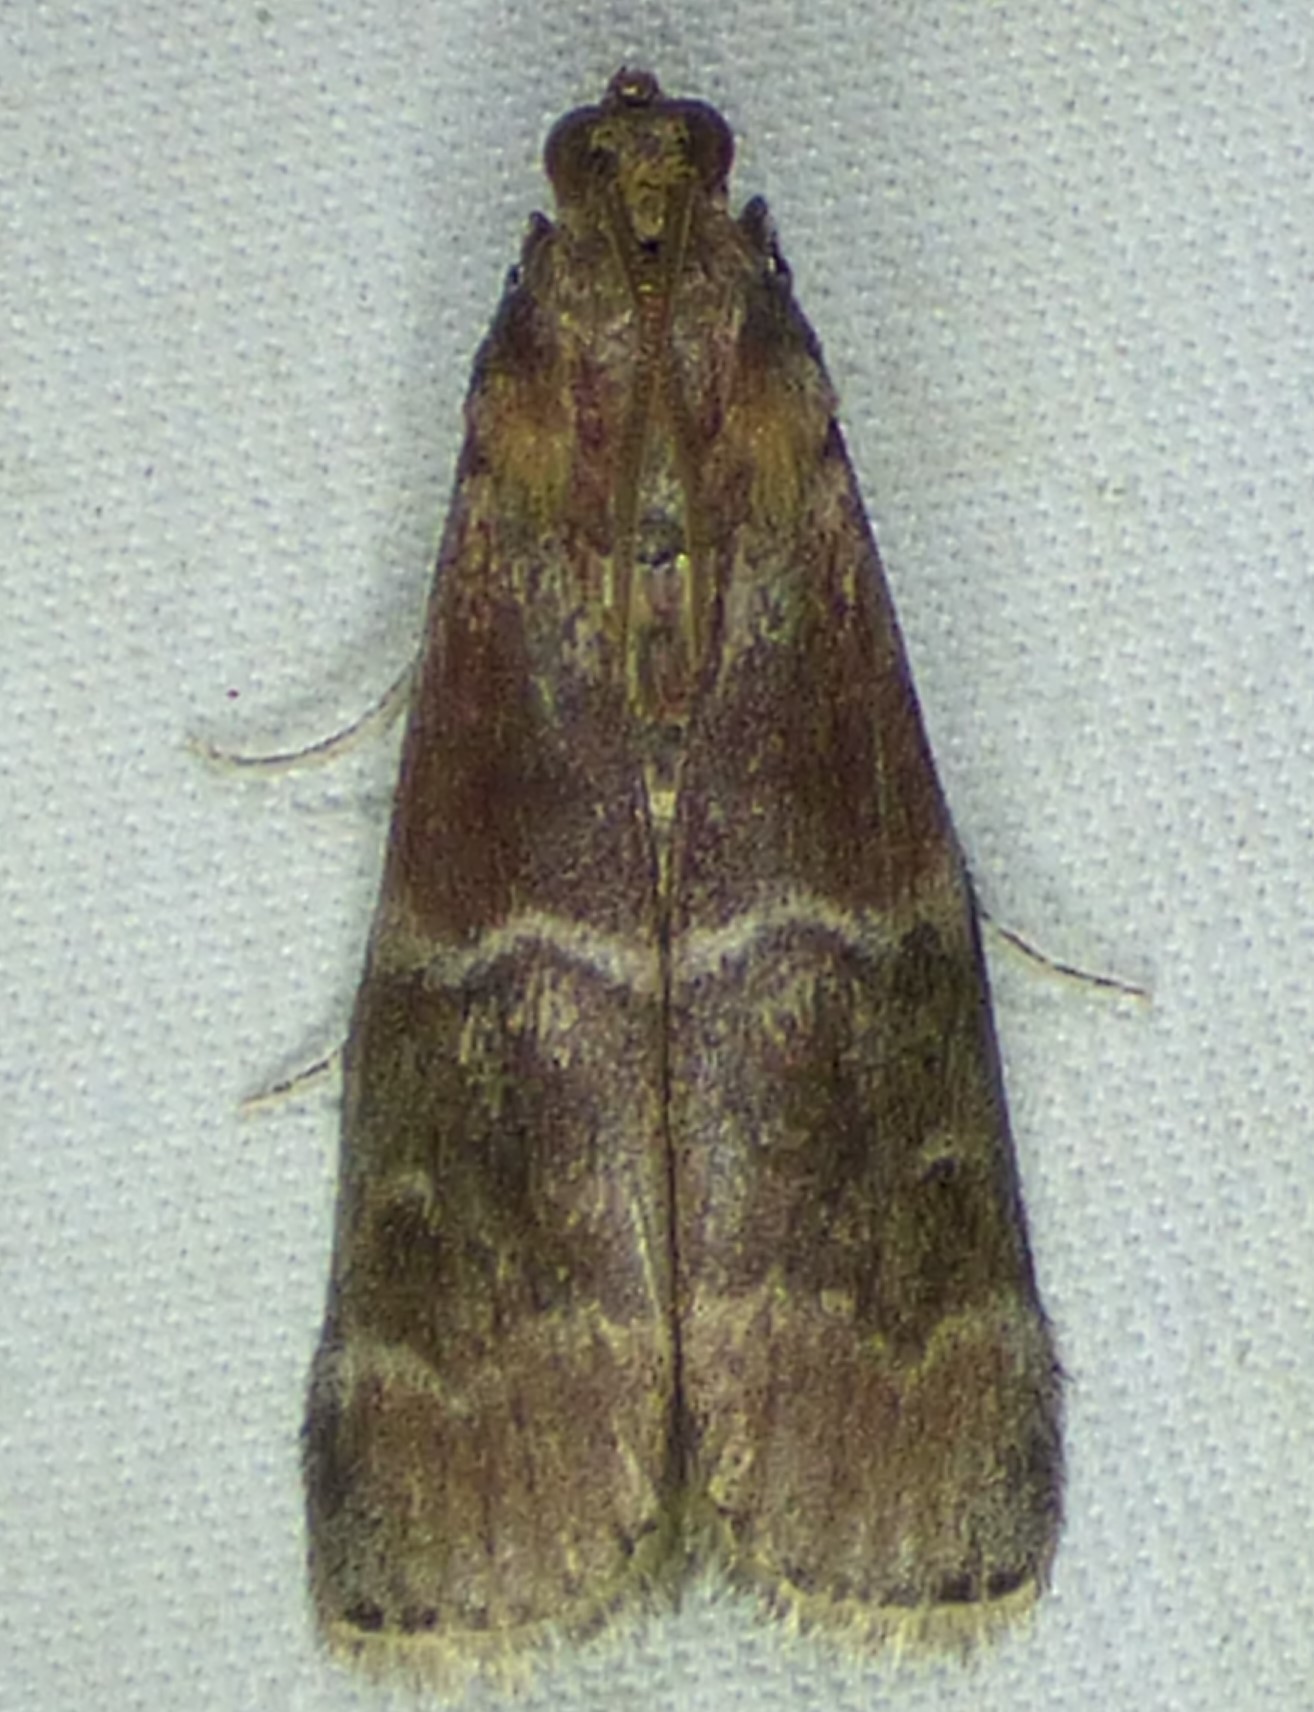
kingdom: Animalia
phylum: Arthropoda
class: Insecta
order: Lepidoptera
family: Pyralidae
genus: Euzophera
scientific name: Euzophera ostricolorella
